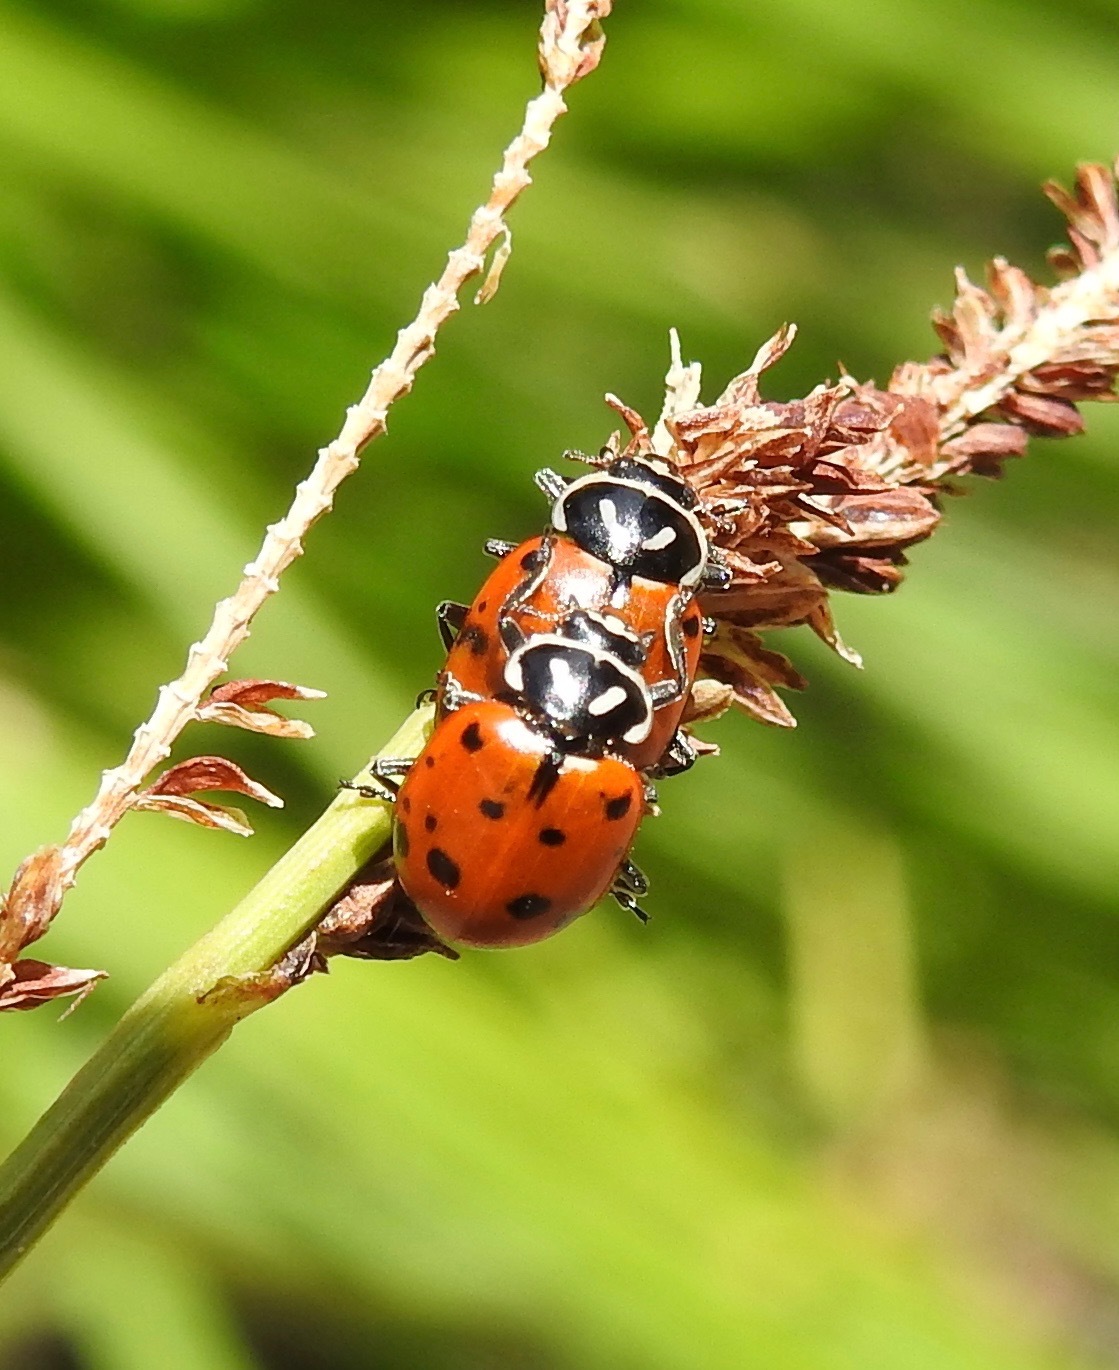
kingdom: Animalia
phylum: Arthropoda
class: Insecta
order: Coleoptera
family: Coccinellidae
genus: Hippodamia
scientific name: Hippodamia convergens
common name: Convergent lady beetle
